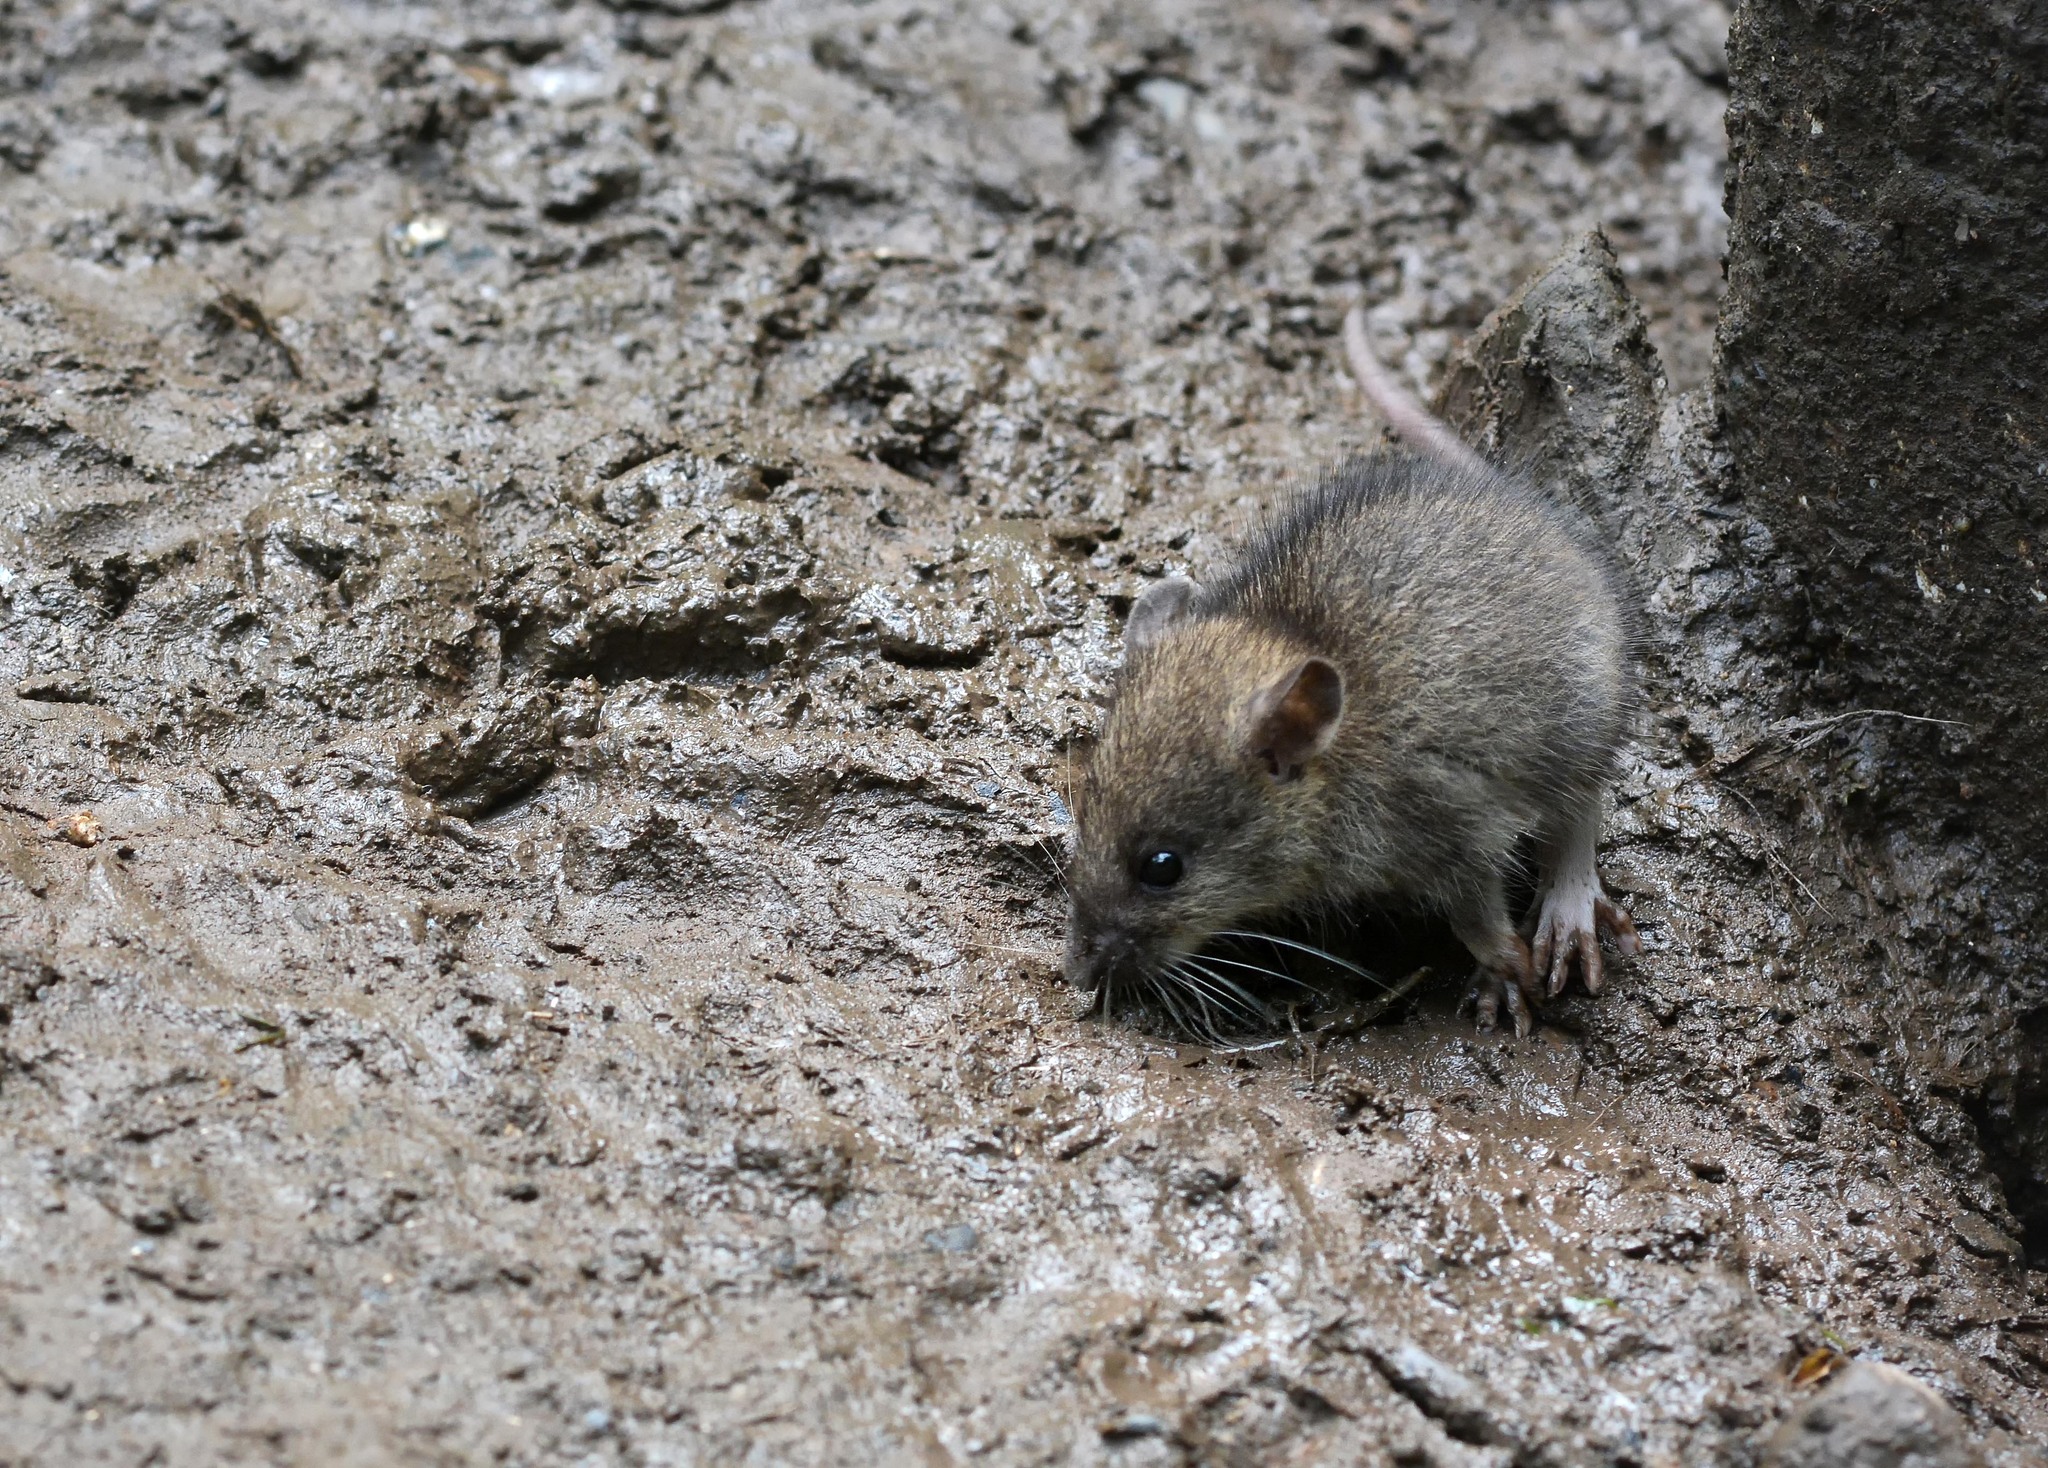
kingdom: Animalia
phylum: Chordata
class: Mammalia
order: Rodentia
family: Muridae
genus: Rattus
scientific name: Rattus norvegicus
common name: Brown rat
